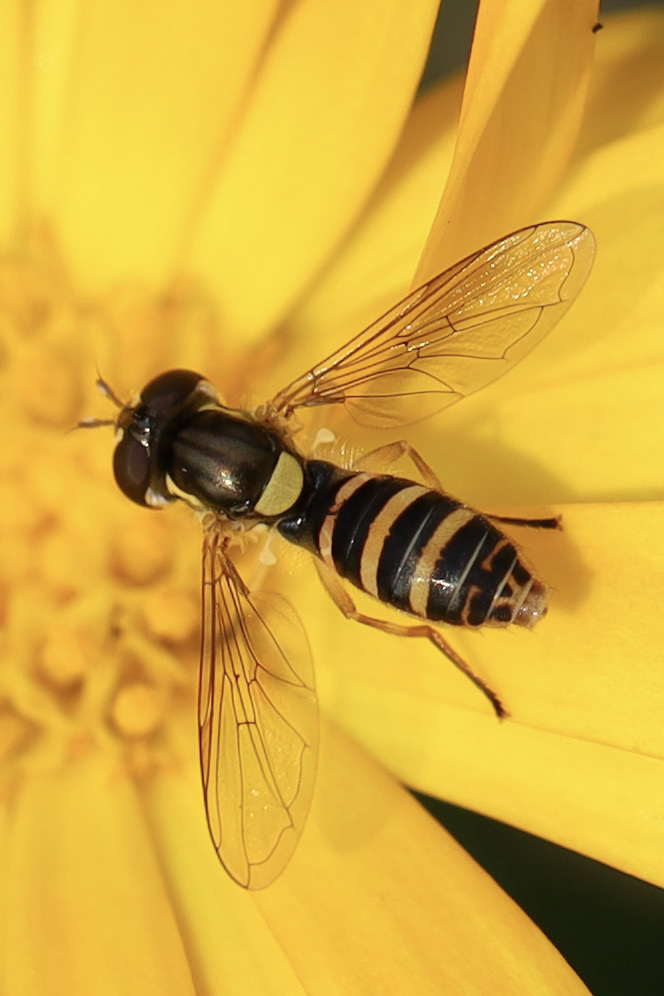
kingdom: Animalia
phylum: Arthropoda
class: Insecta
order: Diptera
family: Syrphidae
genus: Sphaerophoria
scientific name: Sphaerophoria sulphuripes
